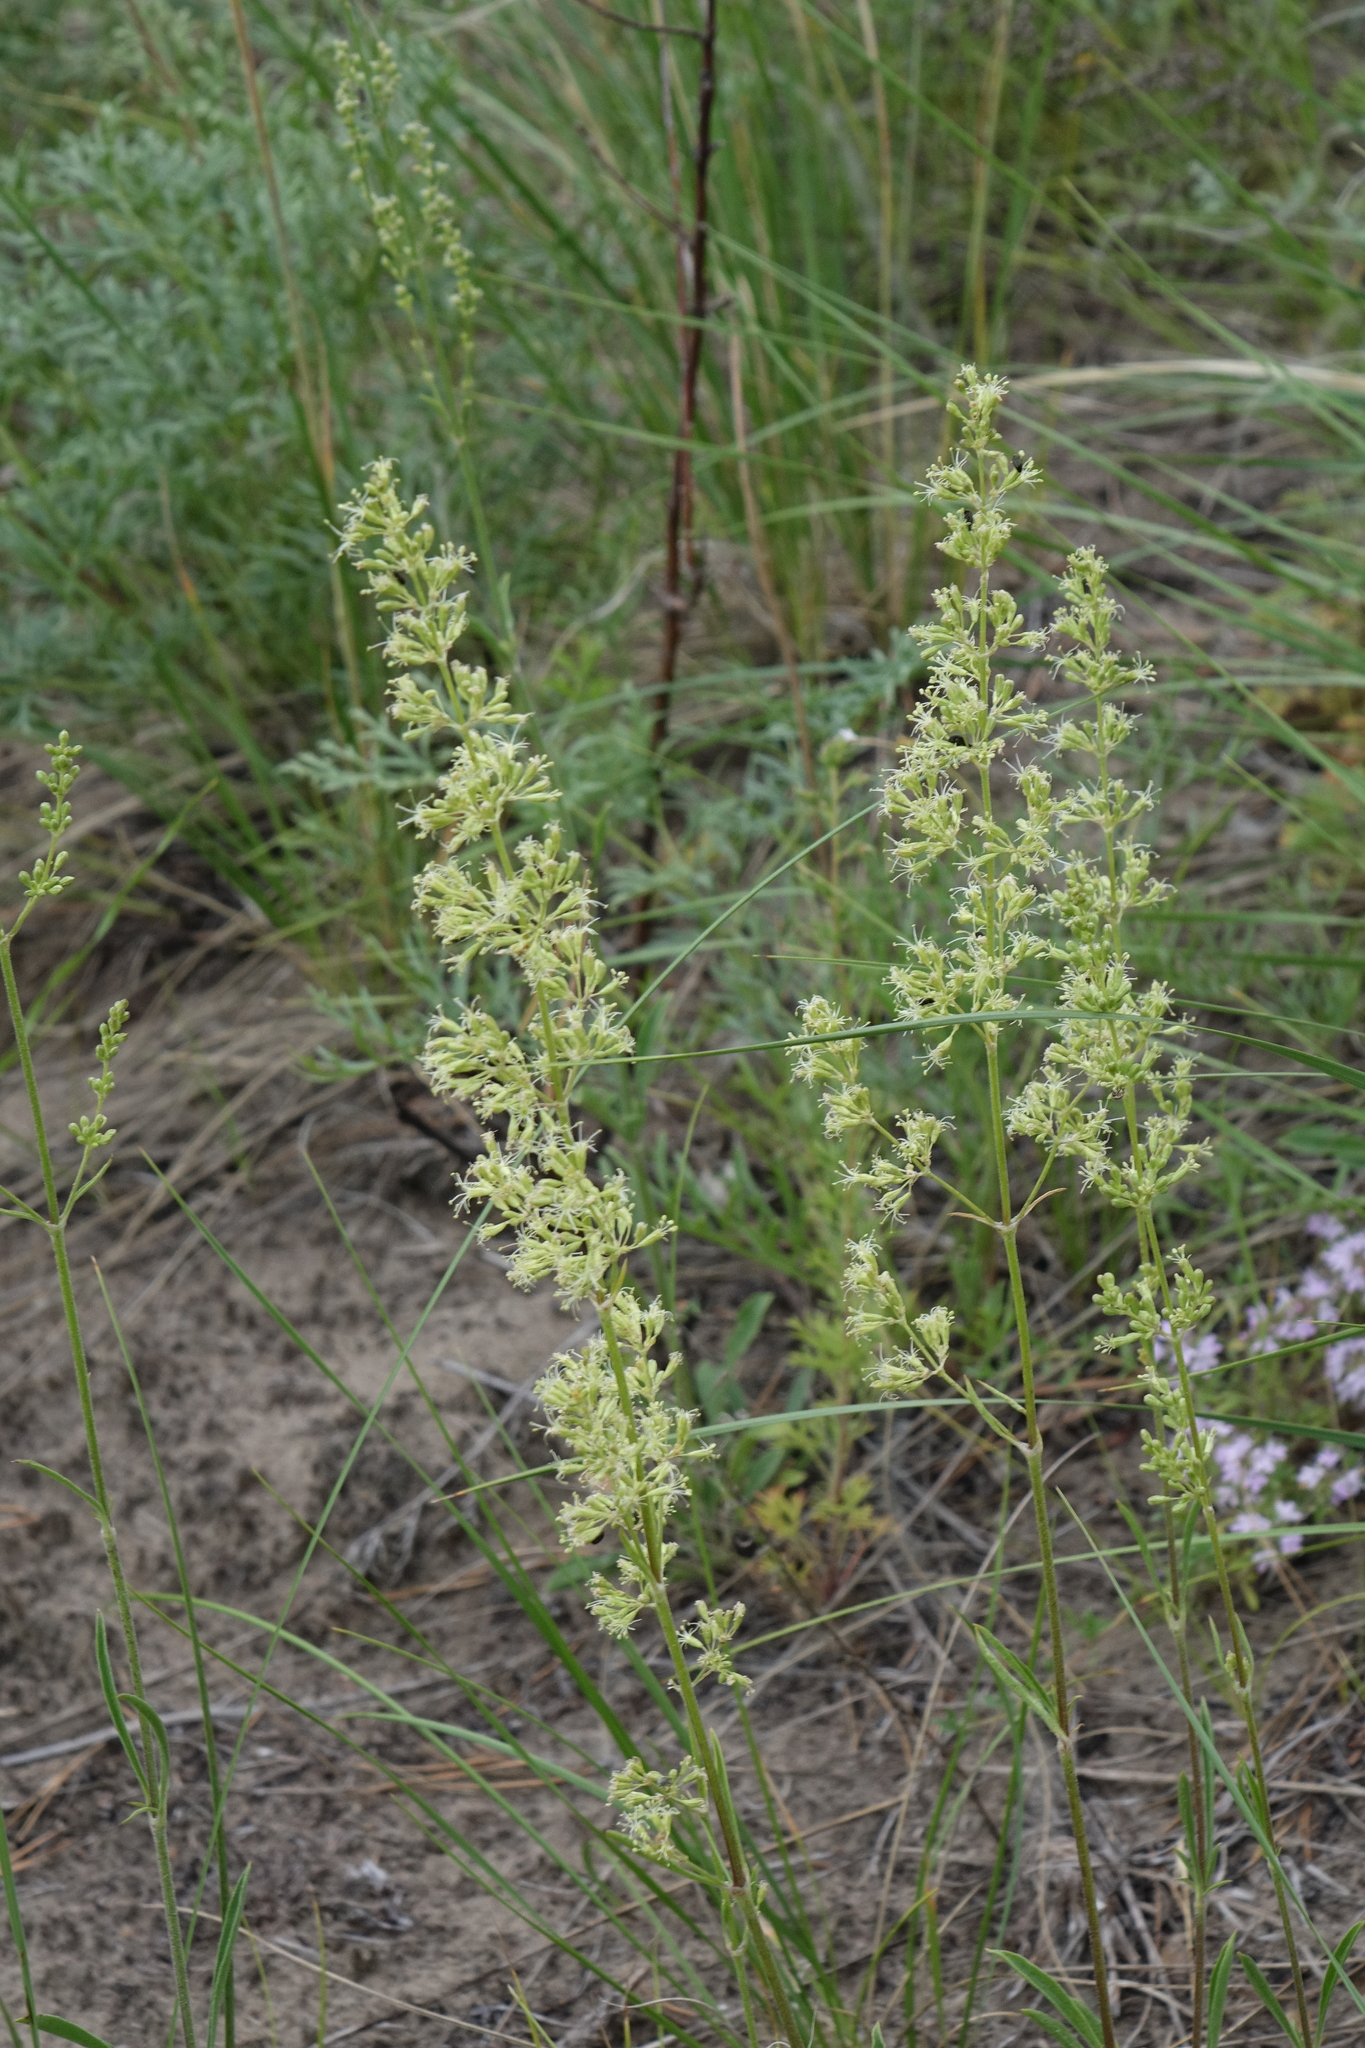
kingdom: Plantae
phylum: Tracheophyta
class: Magnoliopsida
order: Caryophyllales
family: Caryophyllaceae
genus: Silene
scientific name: Silene borysthenica
